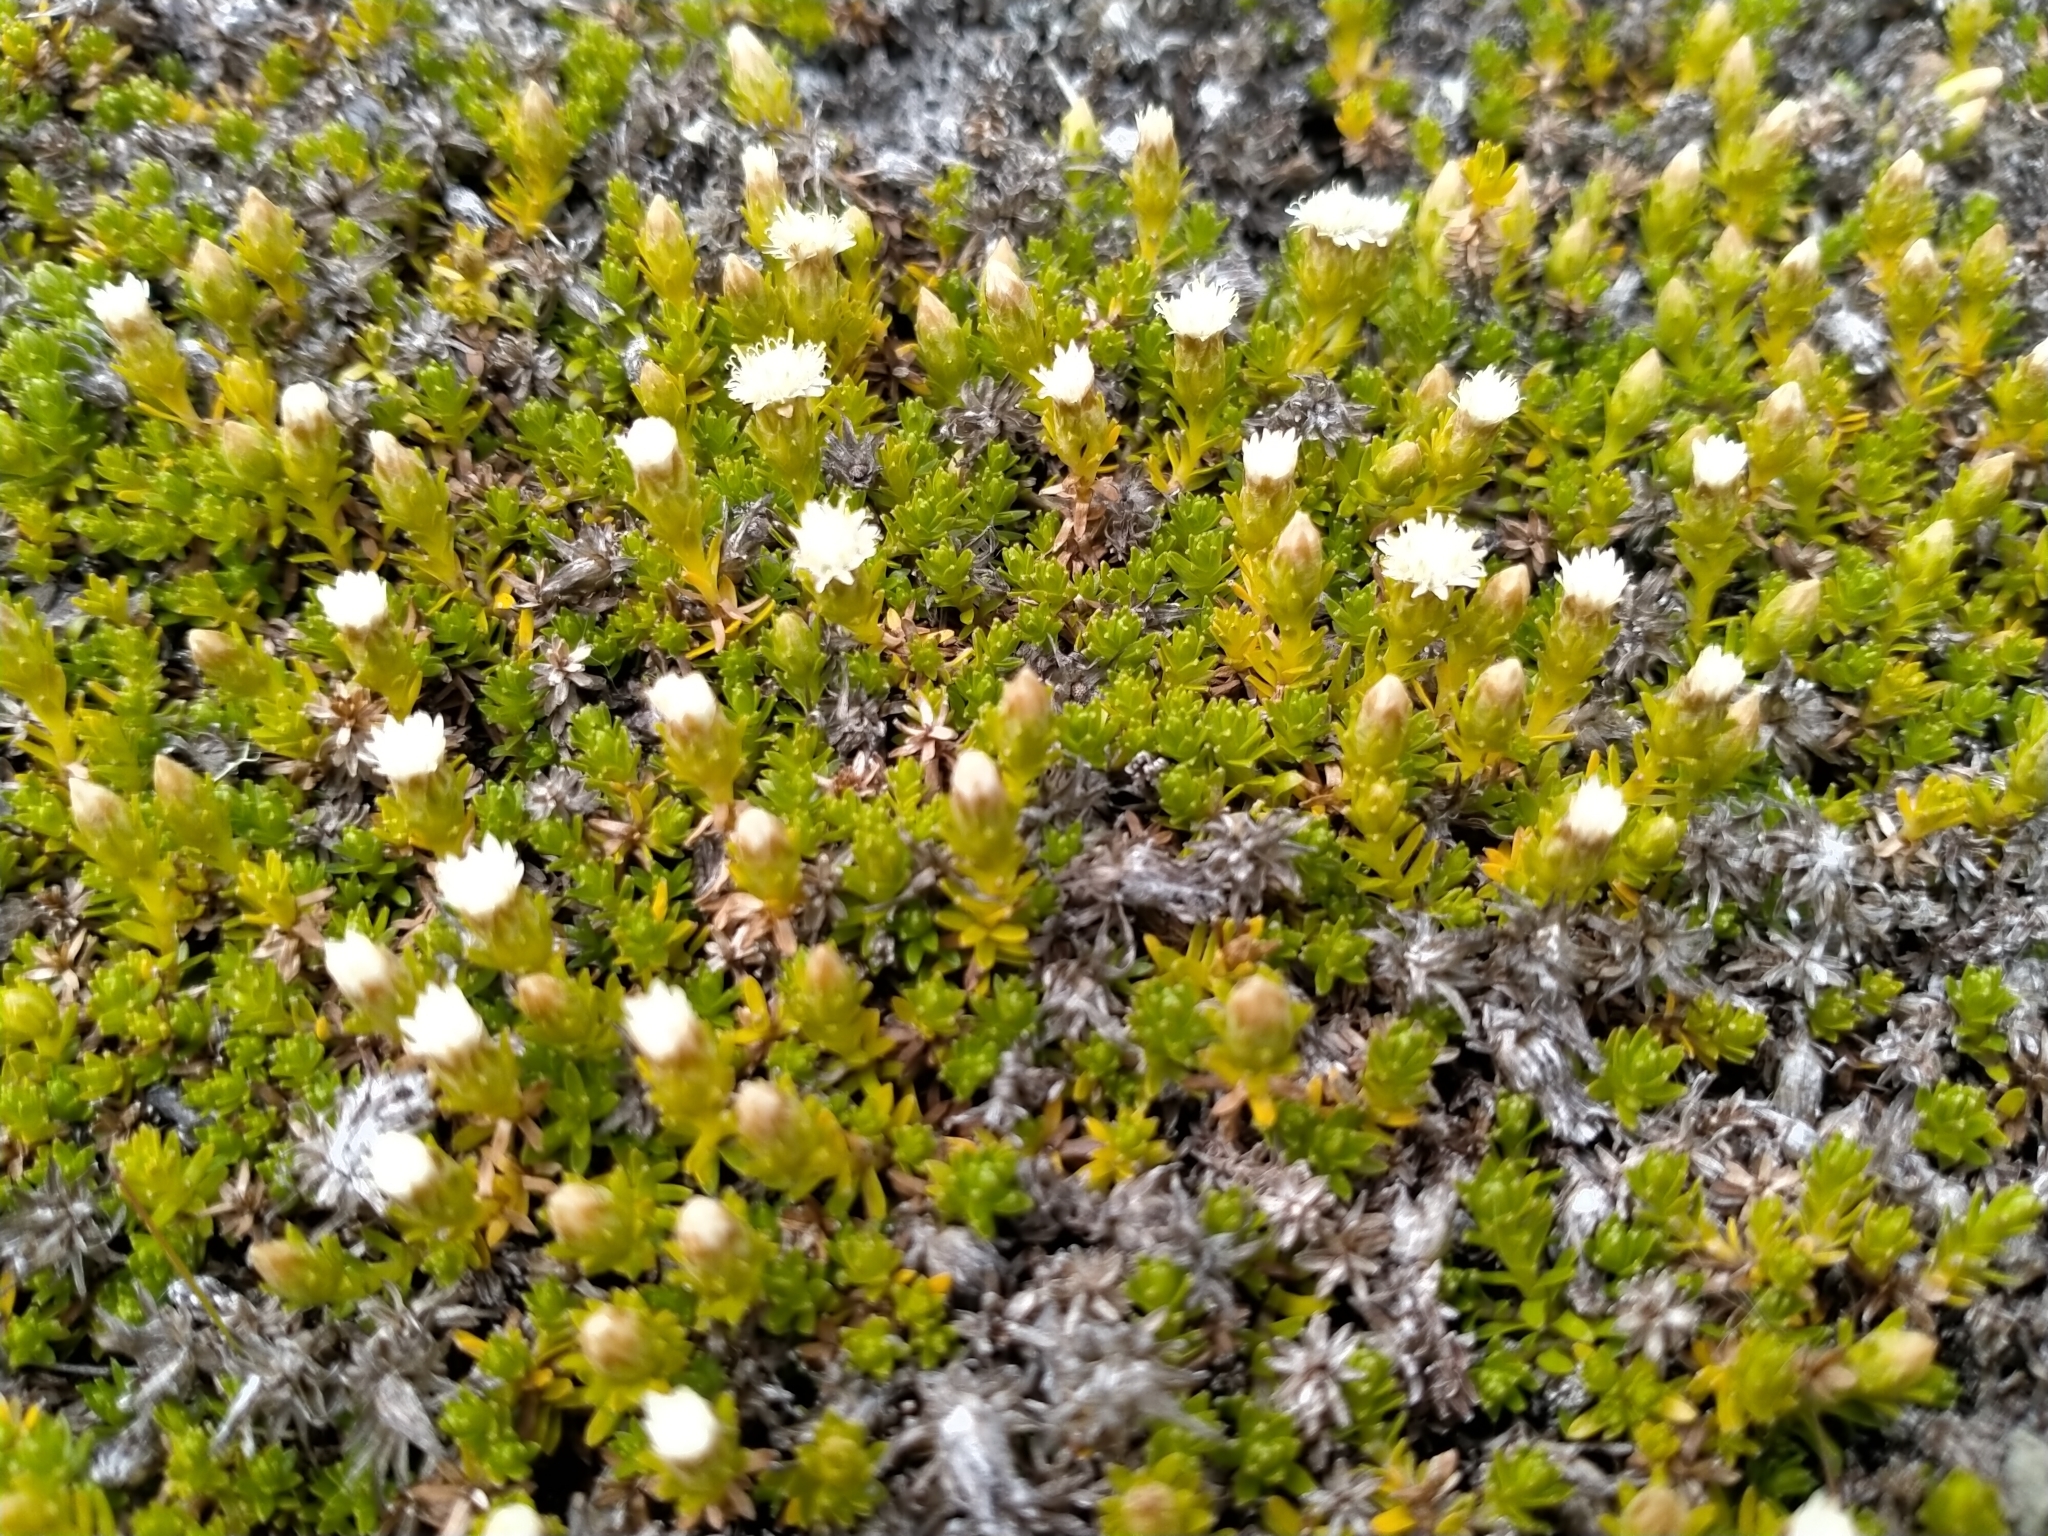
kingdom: Plantae
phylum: Tracheophyta
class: Magnoliopsida
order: Asterales
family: Asteraceae
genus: Raoulia
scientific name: Raoulia glabra
